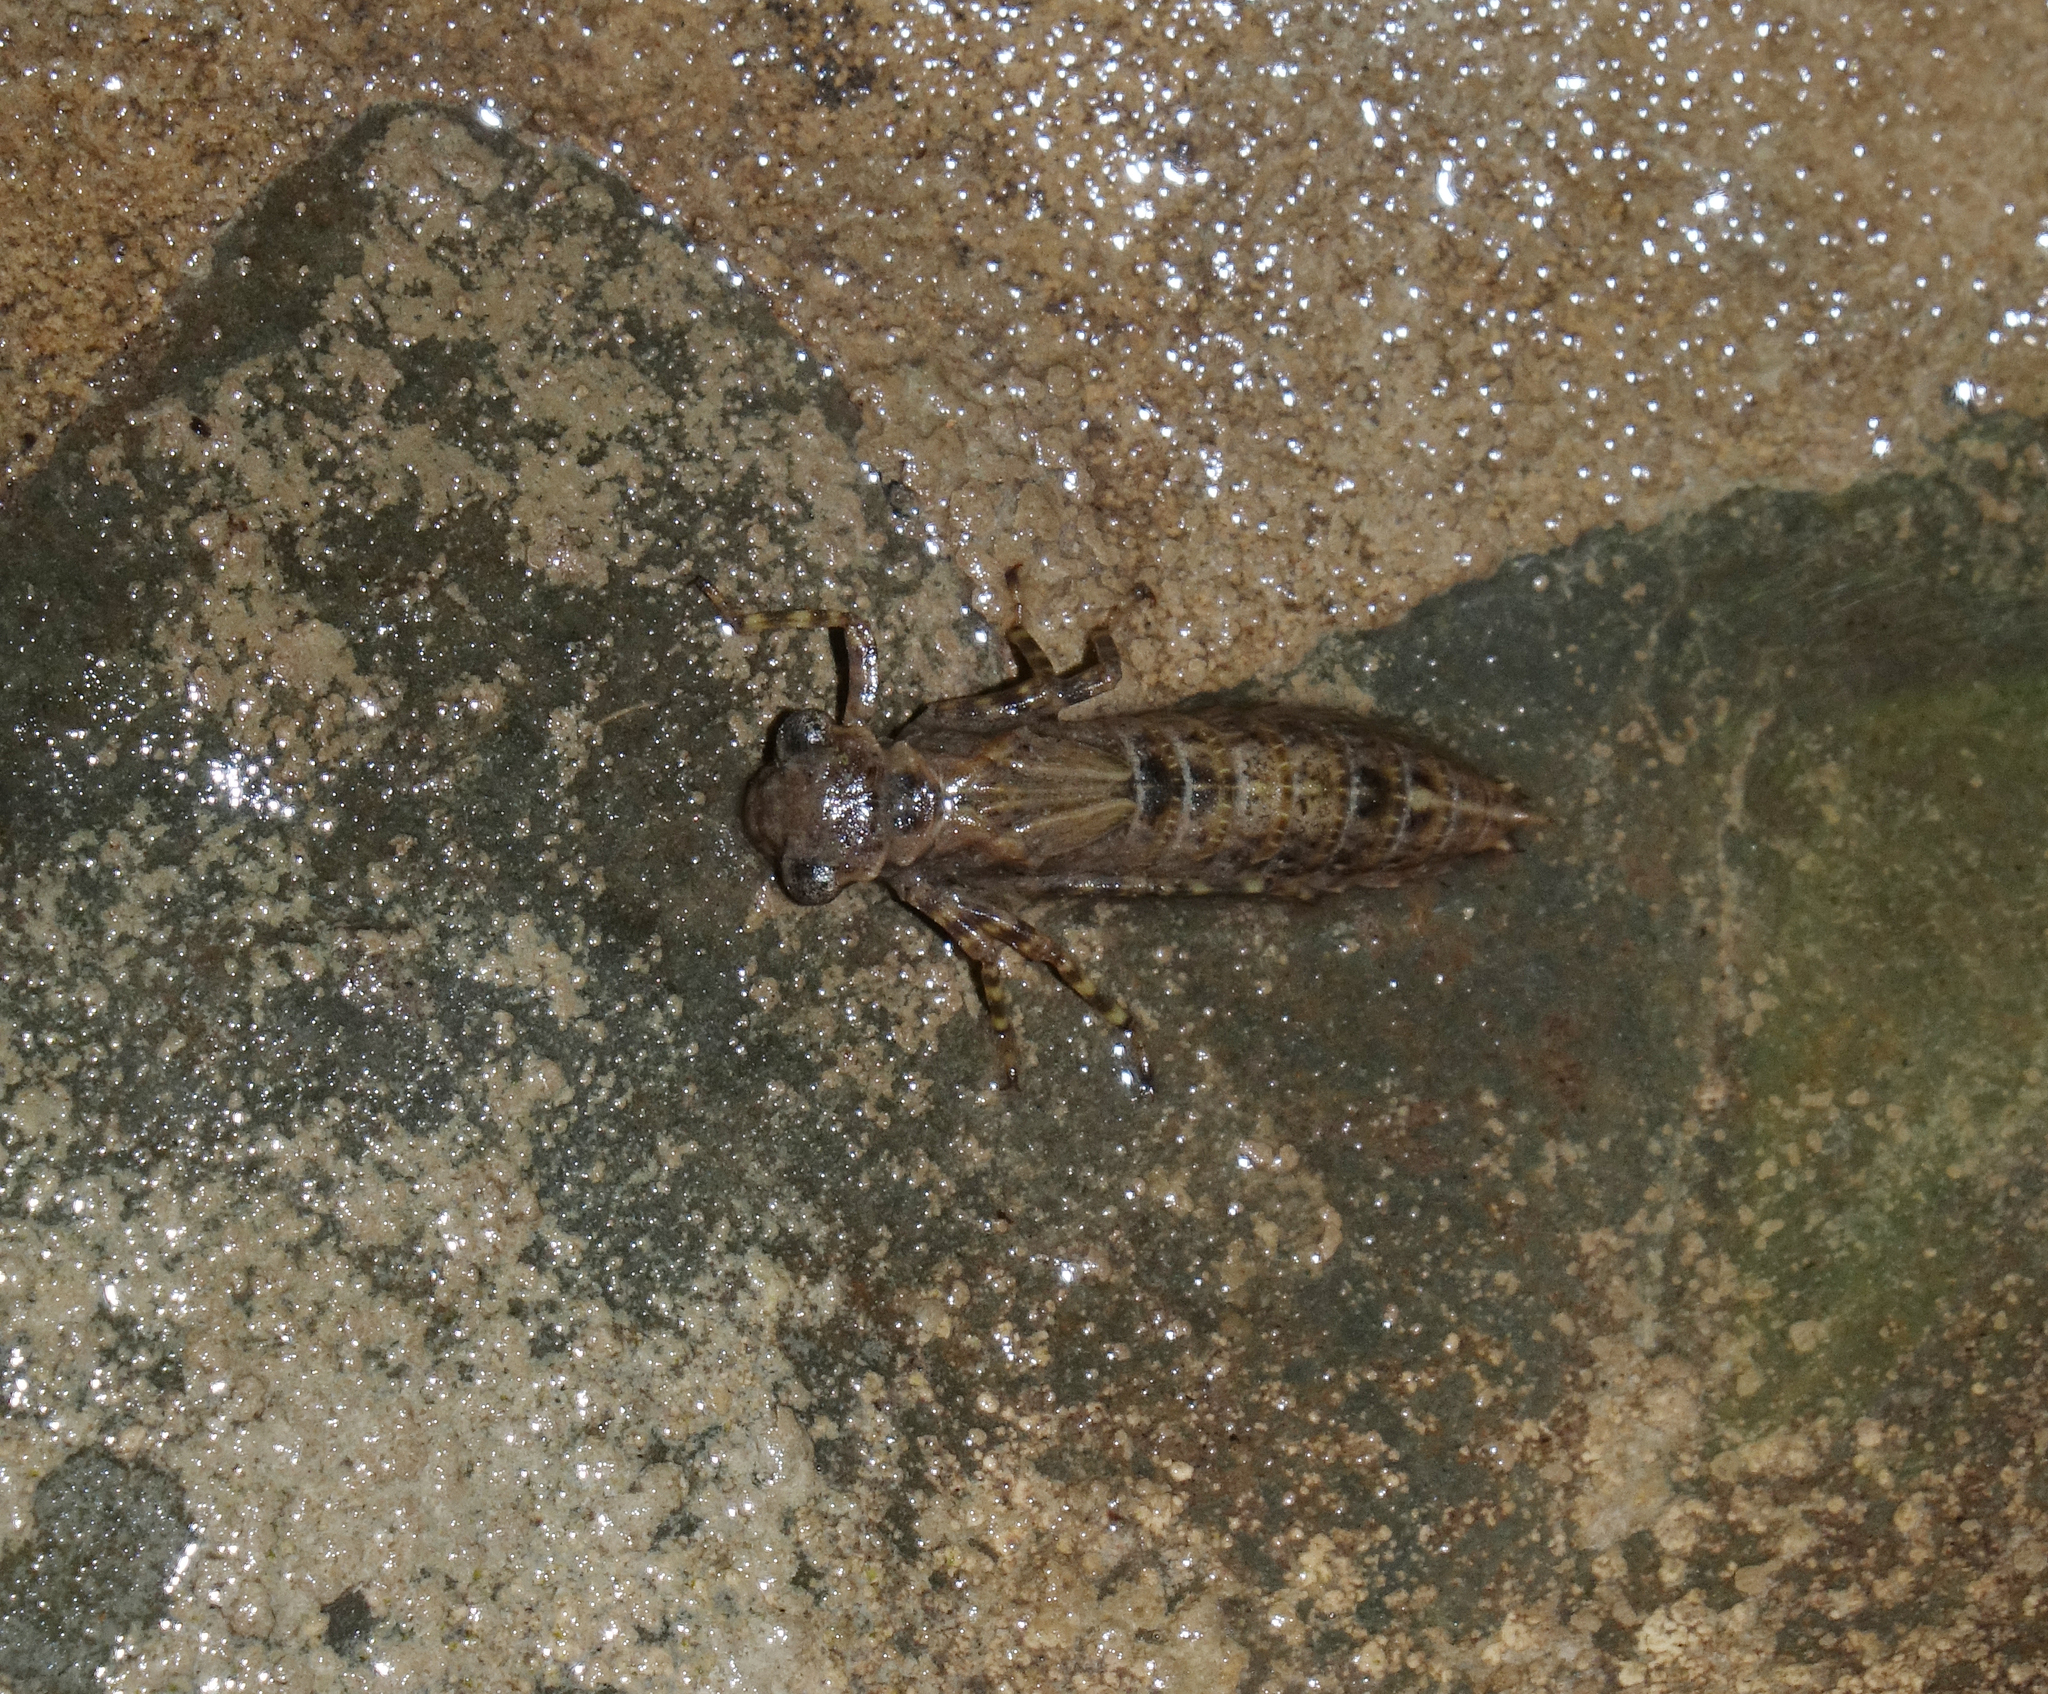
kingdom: Animalia
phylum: Arthropoda
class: Insecta
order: Odonata
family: Aeshnidae
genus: Caliaeschna
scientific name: Caliaeschna microstigma
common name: Eastern spectre
